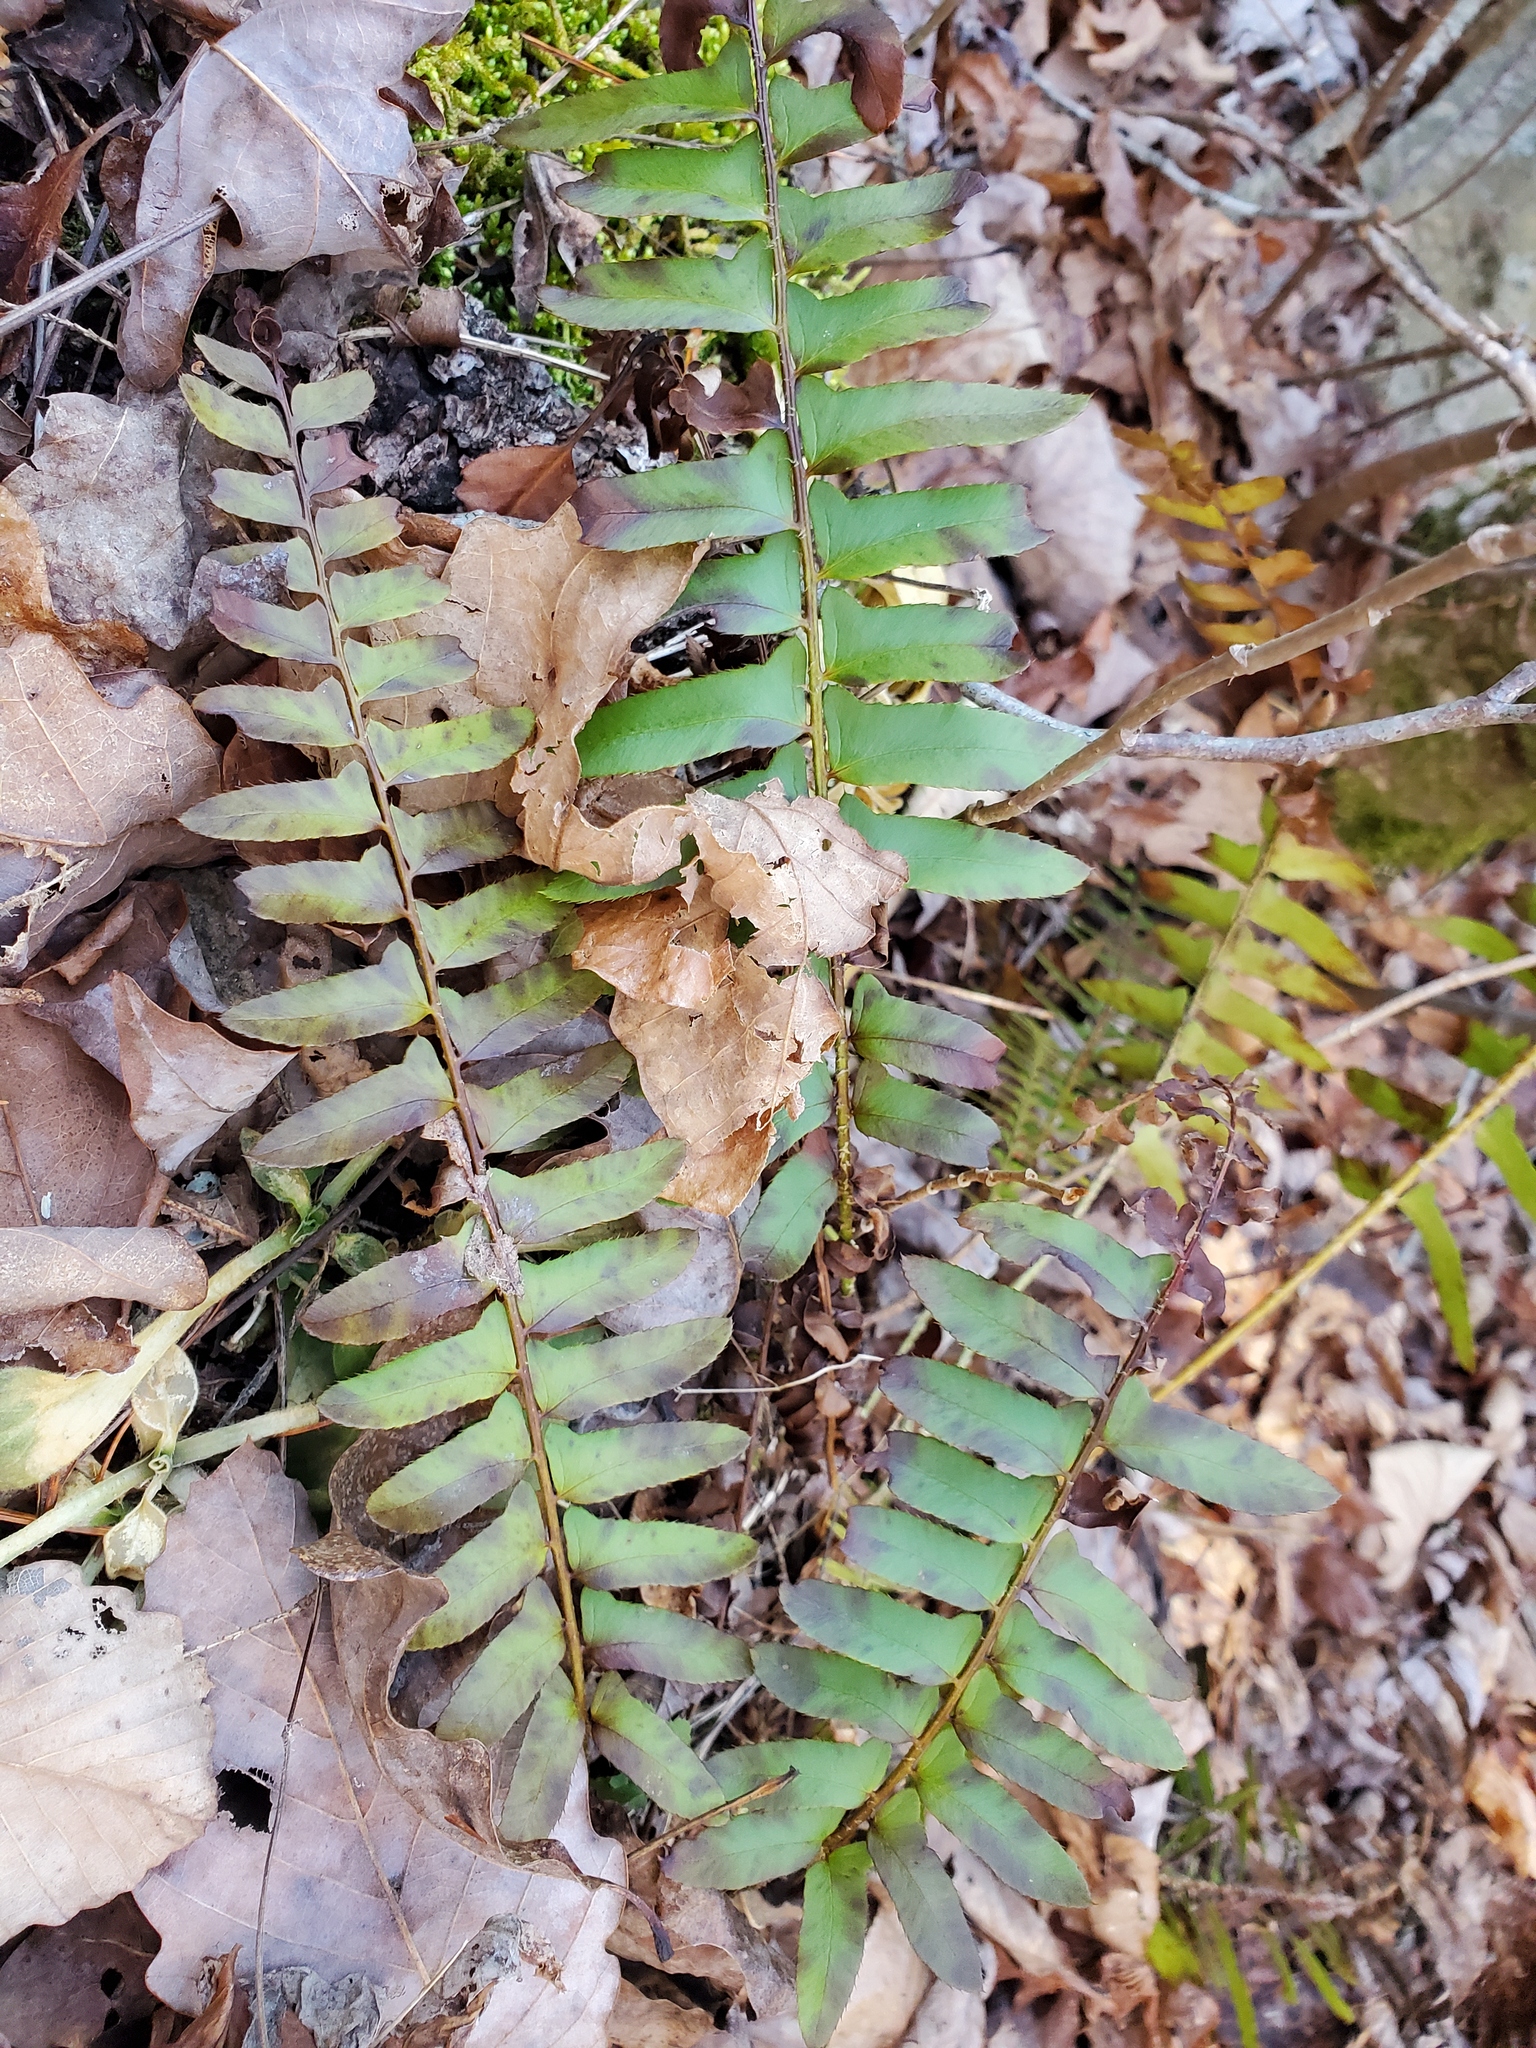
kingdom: Plantae
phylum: Tracheophyta
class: Polypodiopsida
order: Polypodiales
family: Dryopteridaceae
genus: Polystichum
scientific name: Polystichum acrostichoides
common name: Christmas fern
